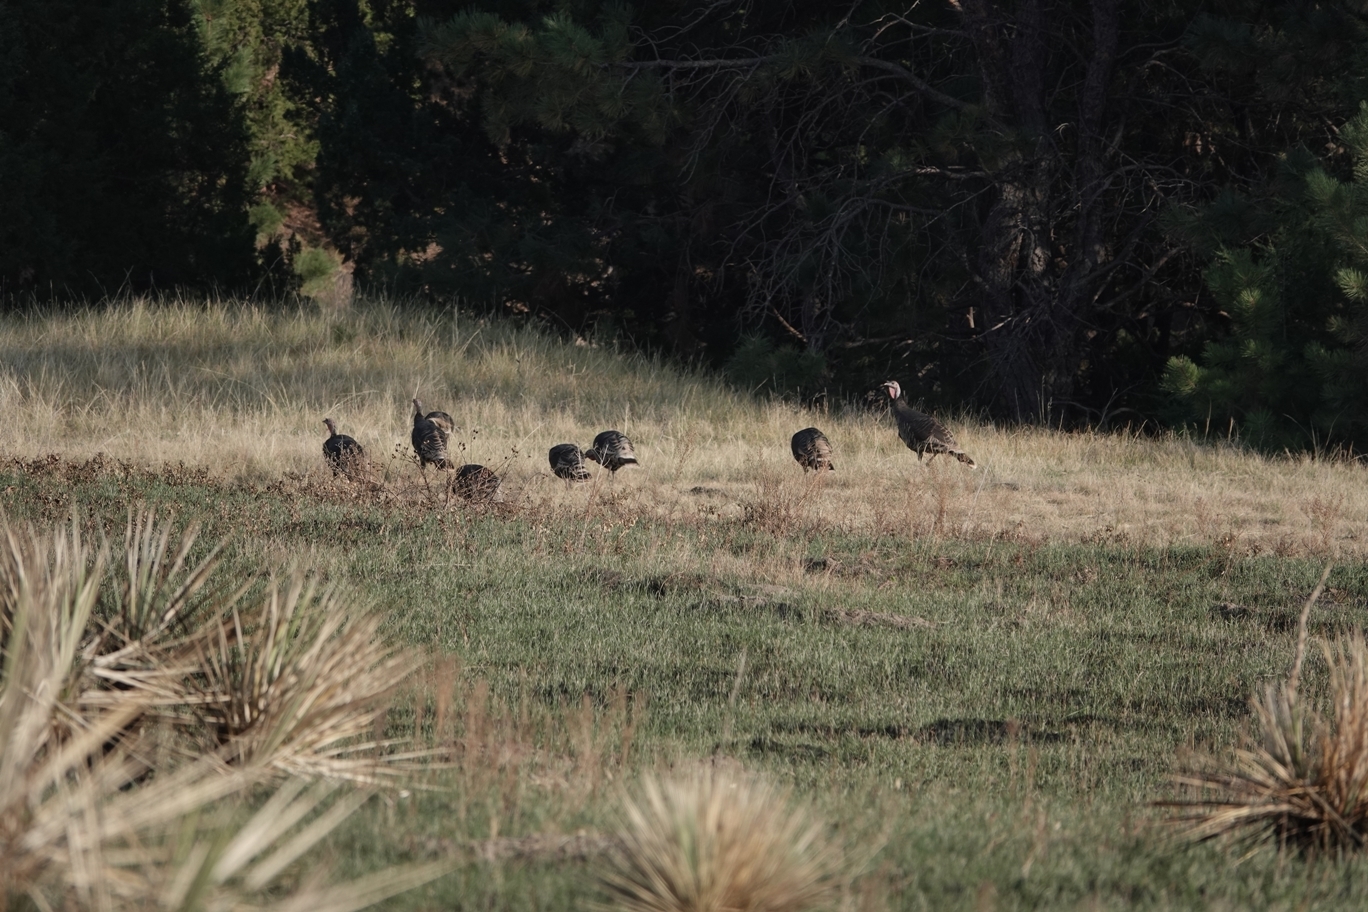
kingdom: Animalia
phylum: Chordata
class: Aves
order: Galliformes
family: Phasianidae
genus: Meleagris
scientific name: Meleagris gallopavo
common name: Wild turkey
